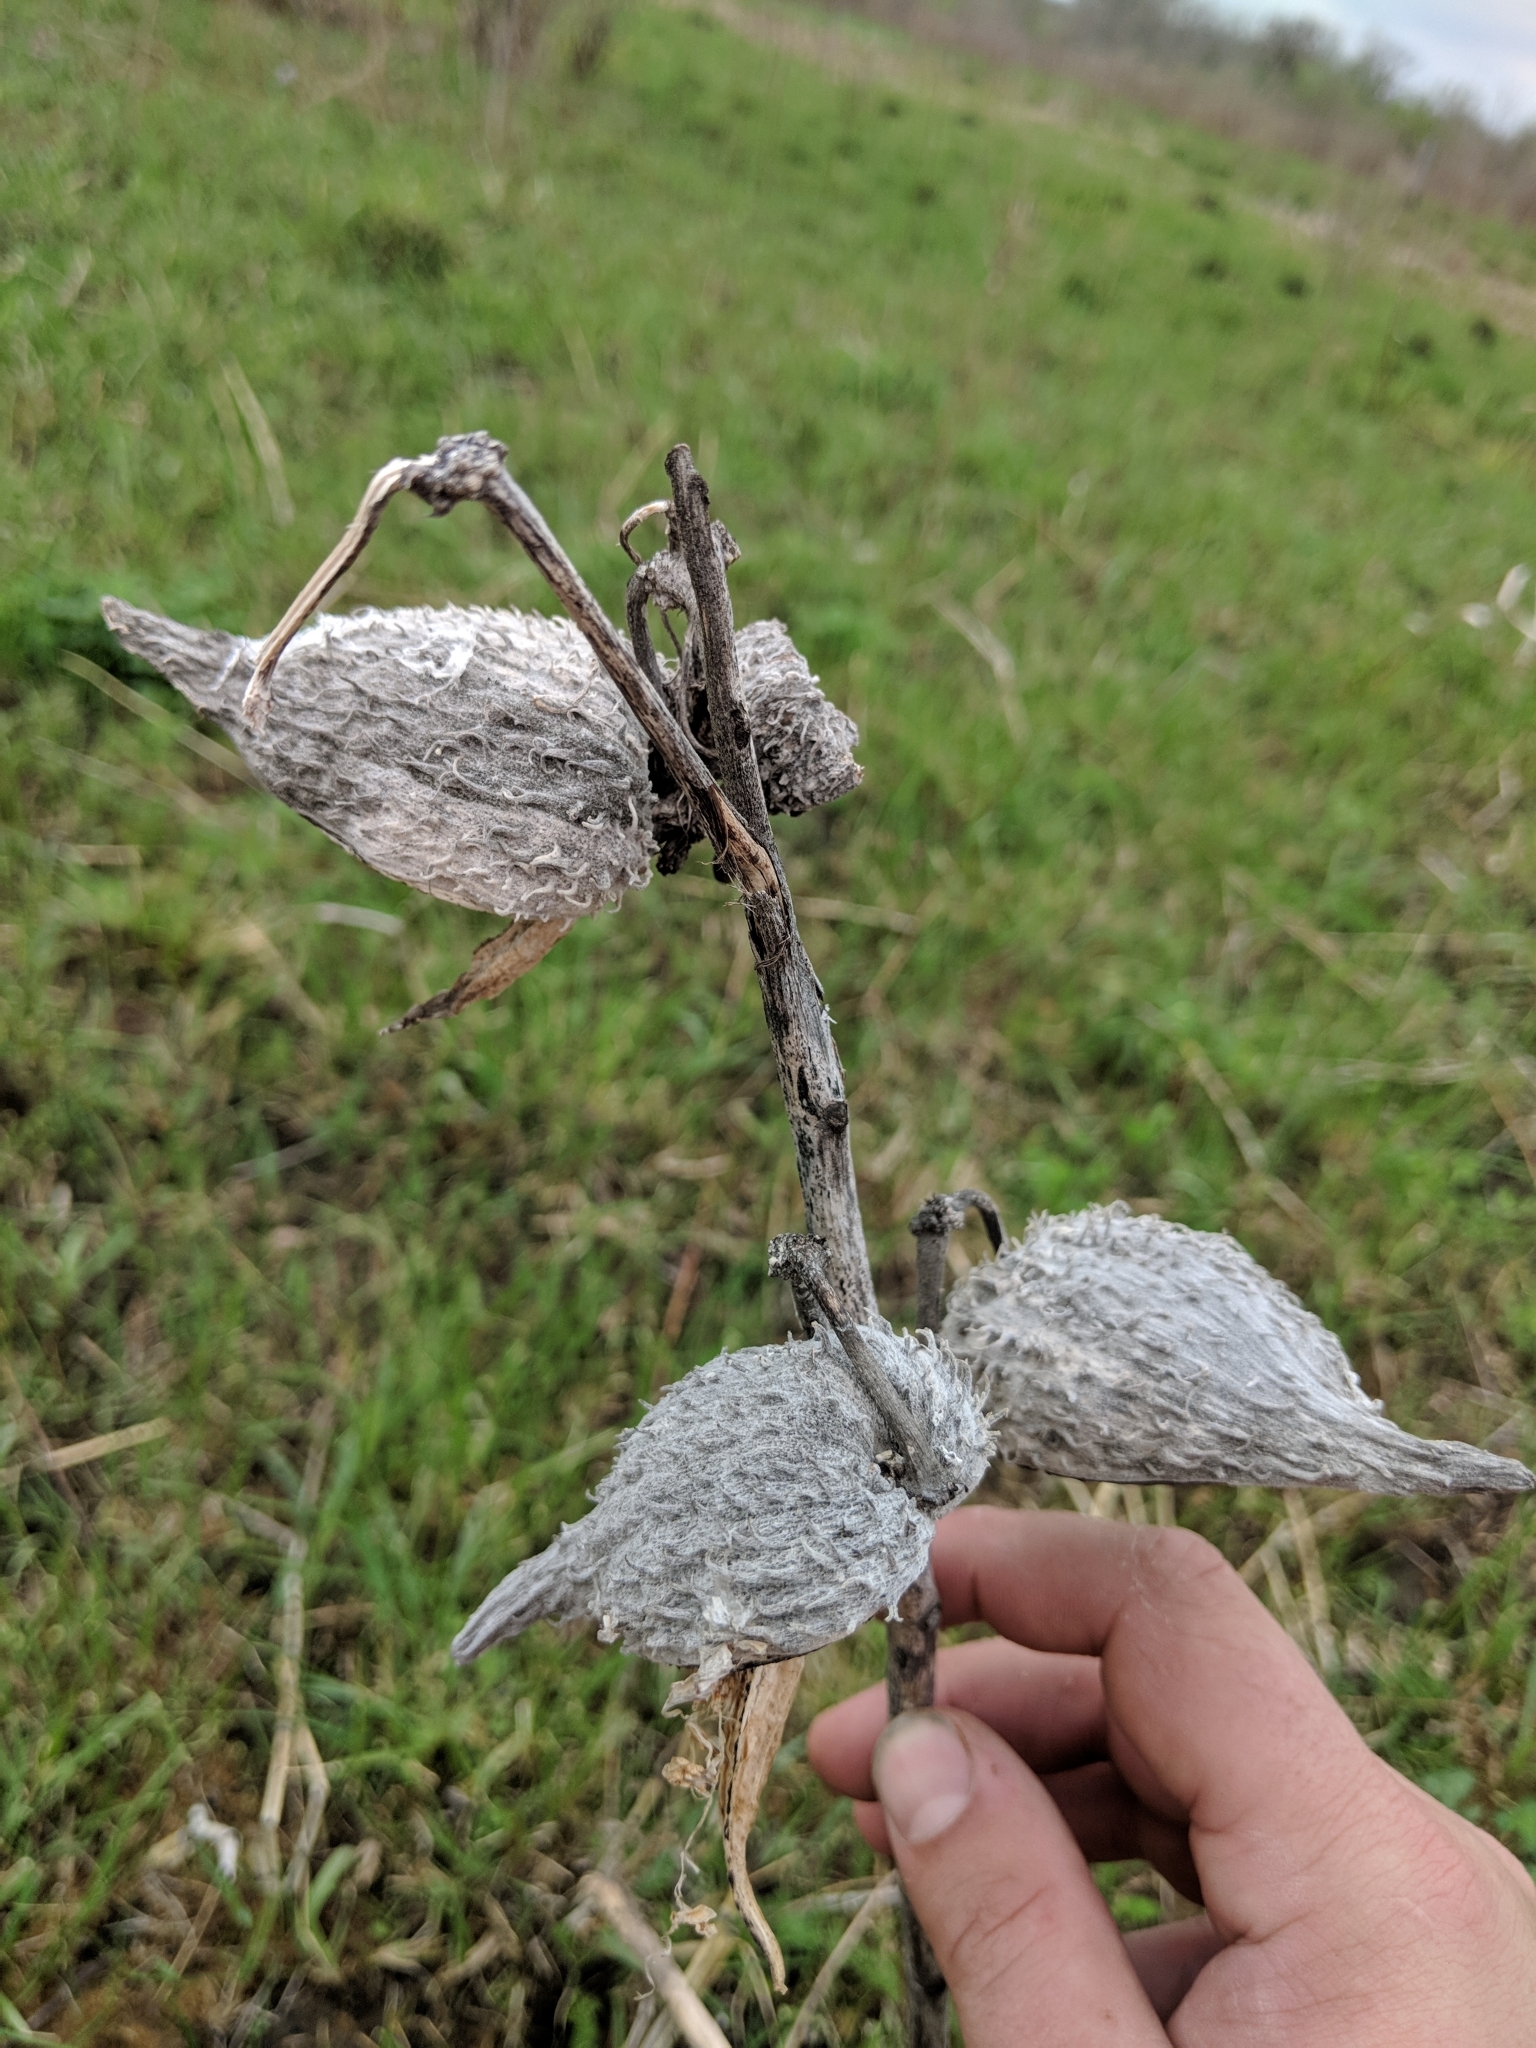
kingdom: Plantae
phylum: Tracheophyta
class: Magnoliopsida
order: Gentianales
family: Apocynaceae
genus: Asclepias
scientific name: Asclepias syriaca
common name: Common milkweed
